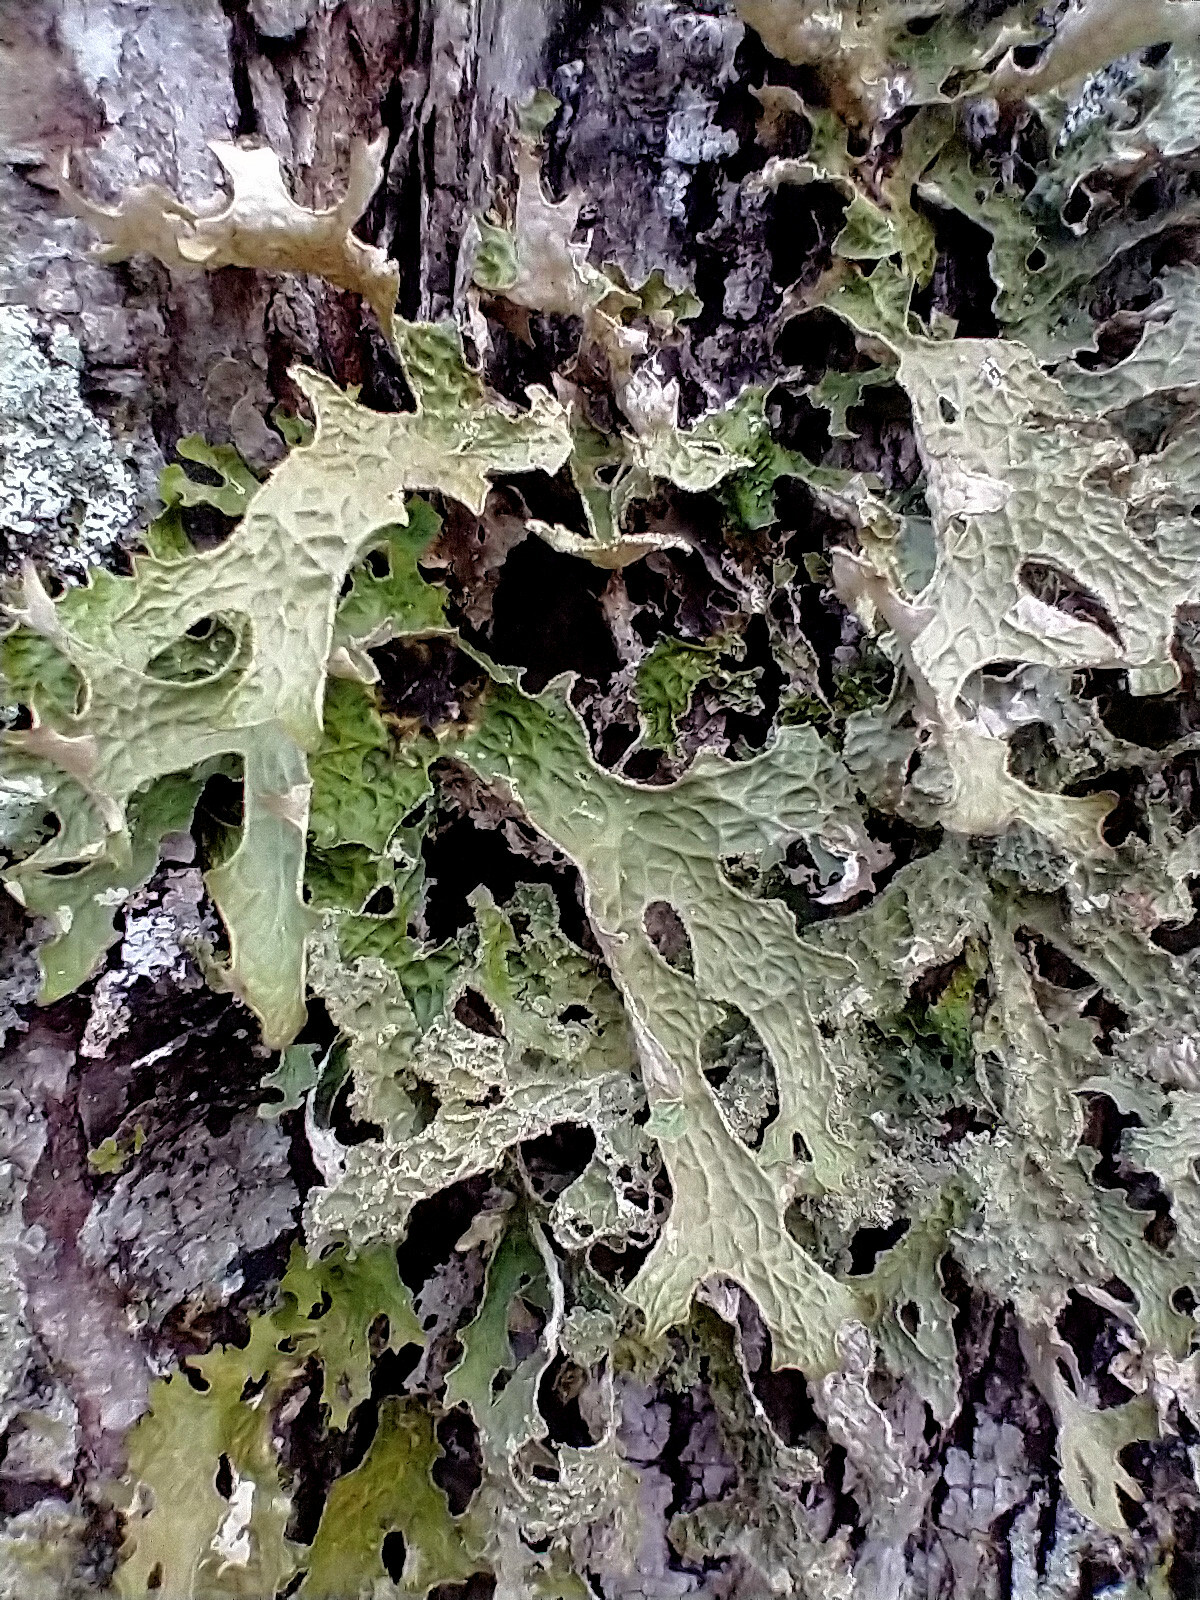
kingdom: Fungi
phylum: Ascomycota
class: Lecanoromycetes
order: Peltigerales
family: Lobariaceae
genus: Lobaria
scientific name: Lobaria pulmonaria
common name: Lungwort
